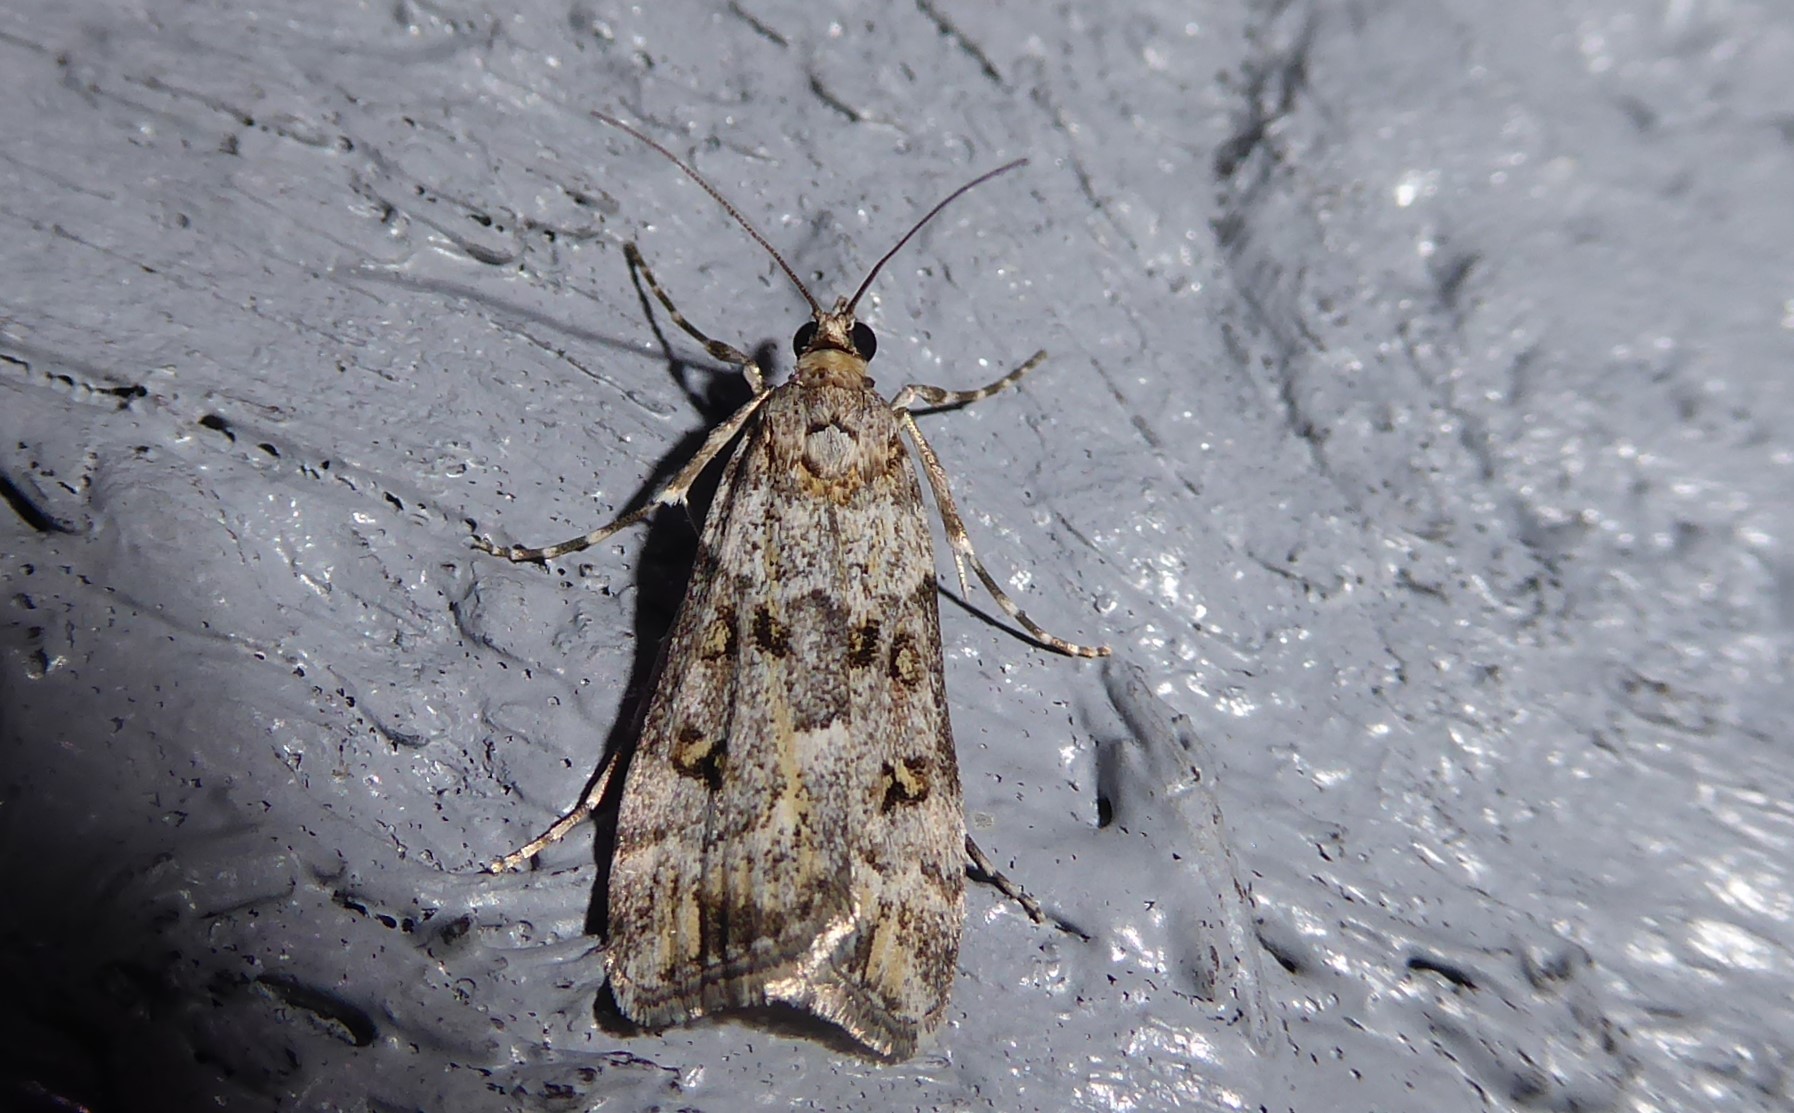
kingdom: Animalia
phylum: Arthropoda
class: Insecta
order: Lepidoptera
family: Crambidae
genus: Eudonia
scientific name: Eudonia diphtheralis
